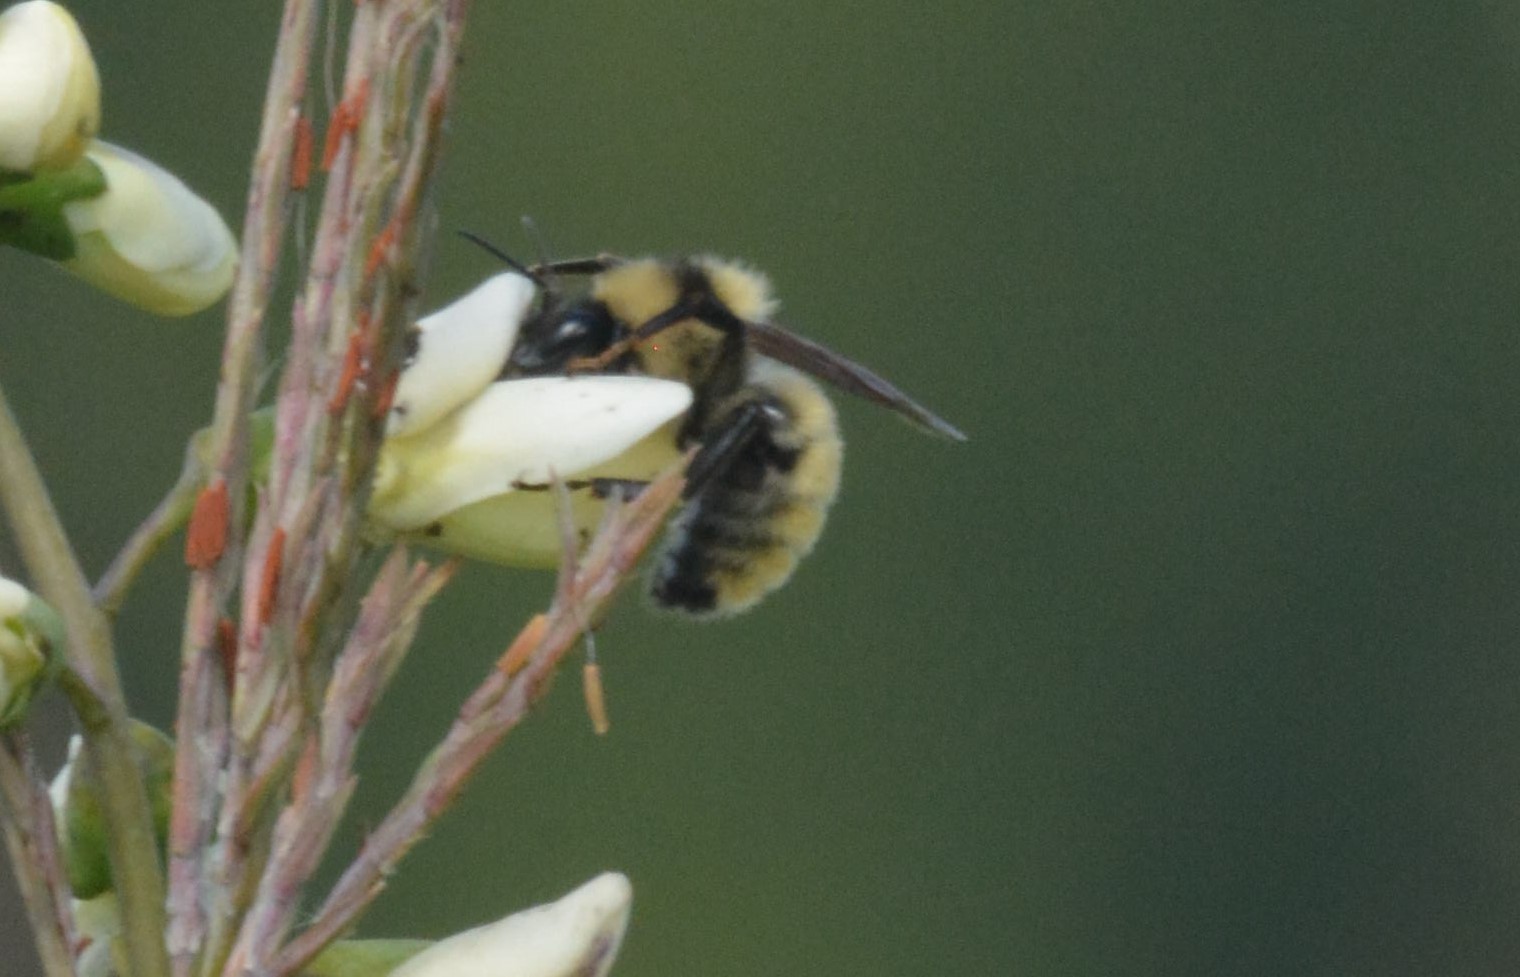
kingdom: Animalia
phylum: Arthropoda
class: Insecta
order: Hymenoptera
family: Apidae
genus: Bombus
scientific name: Bombus fervidus
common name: Yellow bumble bee
